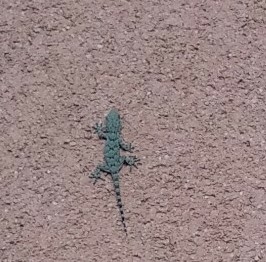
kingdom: Animalia
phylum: Chordata
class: Squamata
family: Phyllodactylidae
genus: Tarentola
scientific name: Tarentola mauritanica
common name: Moorish gecko
